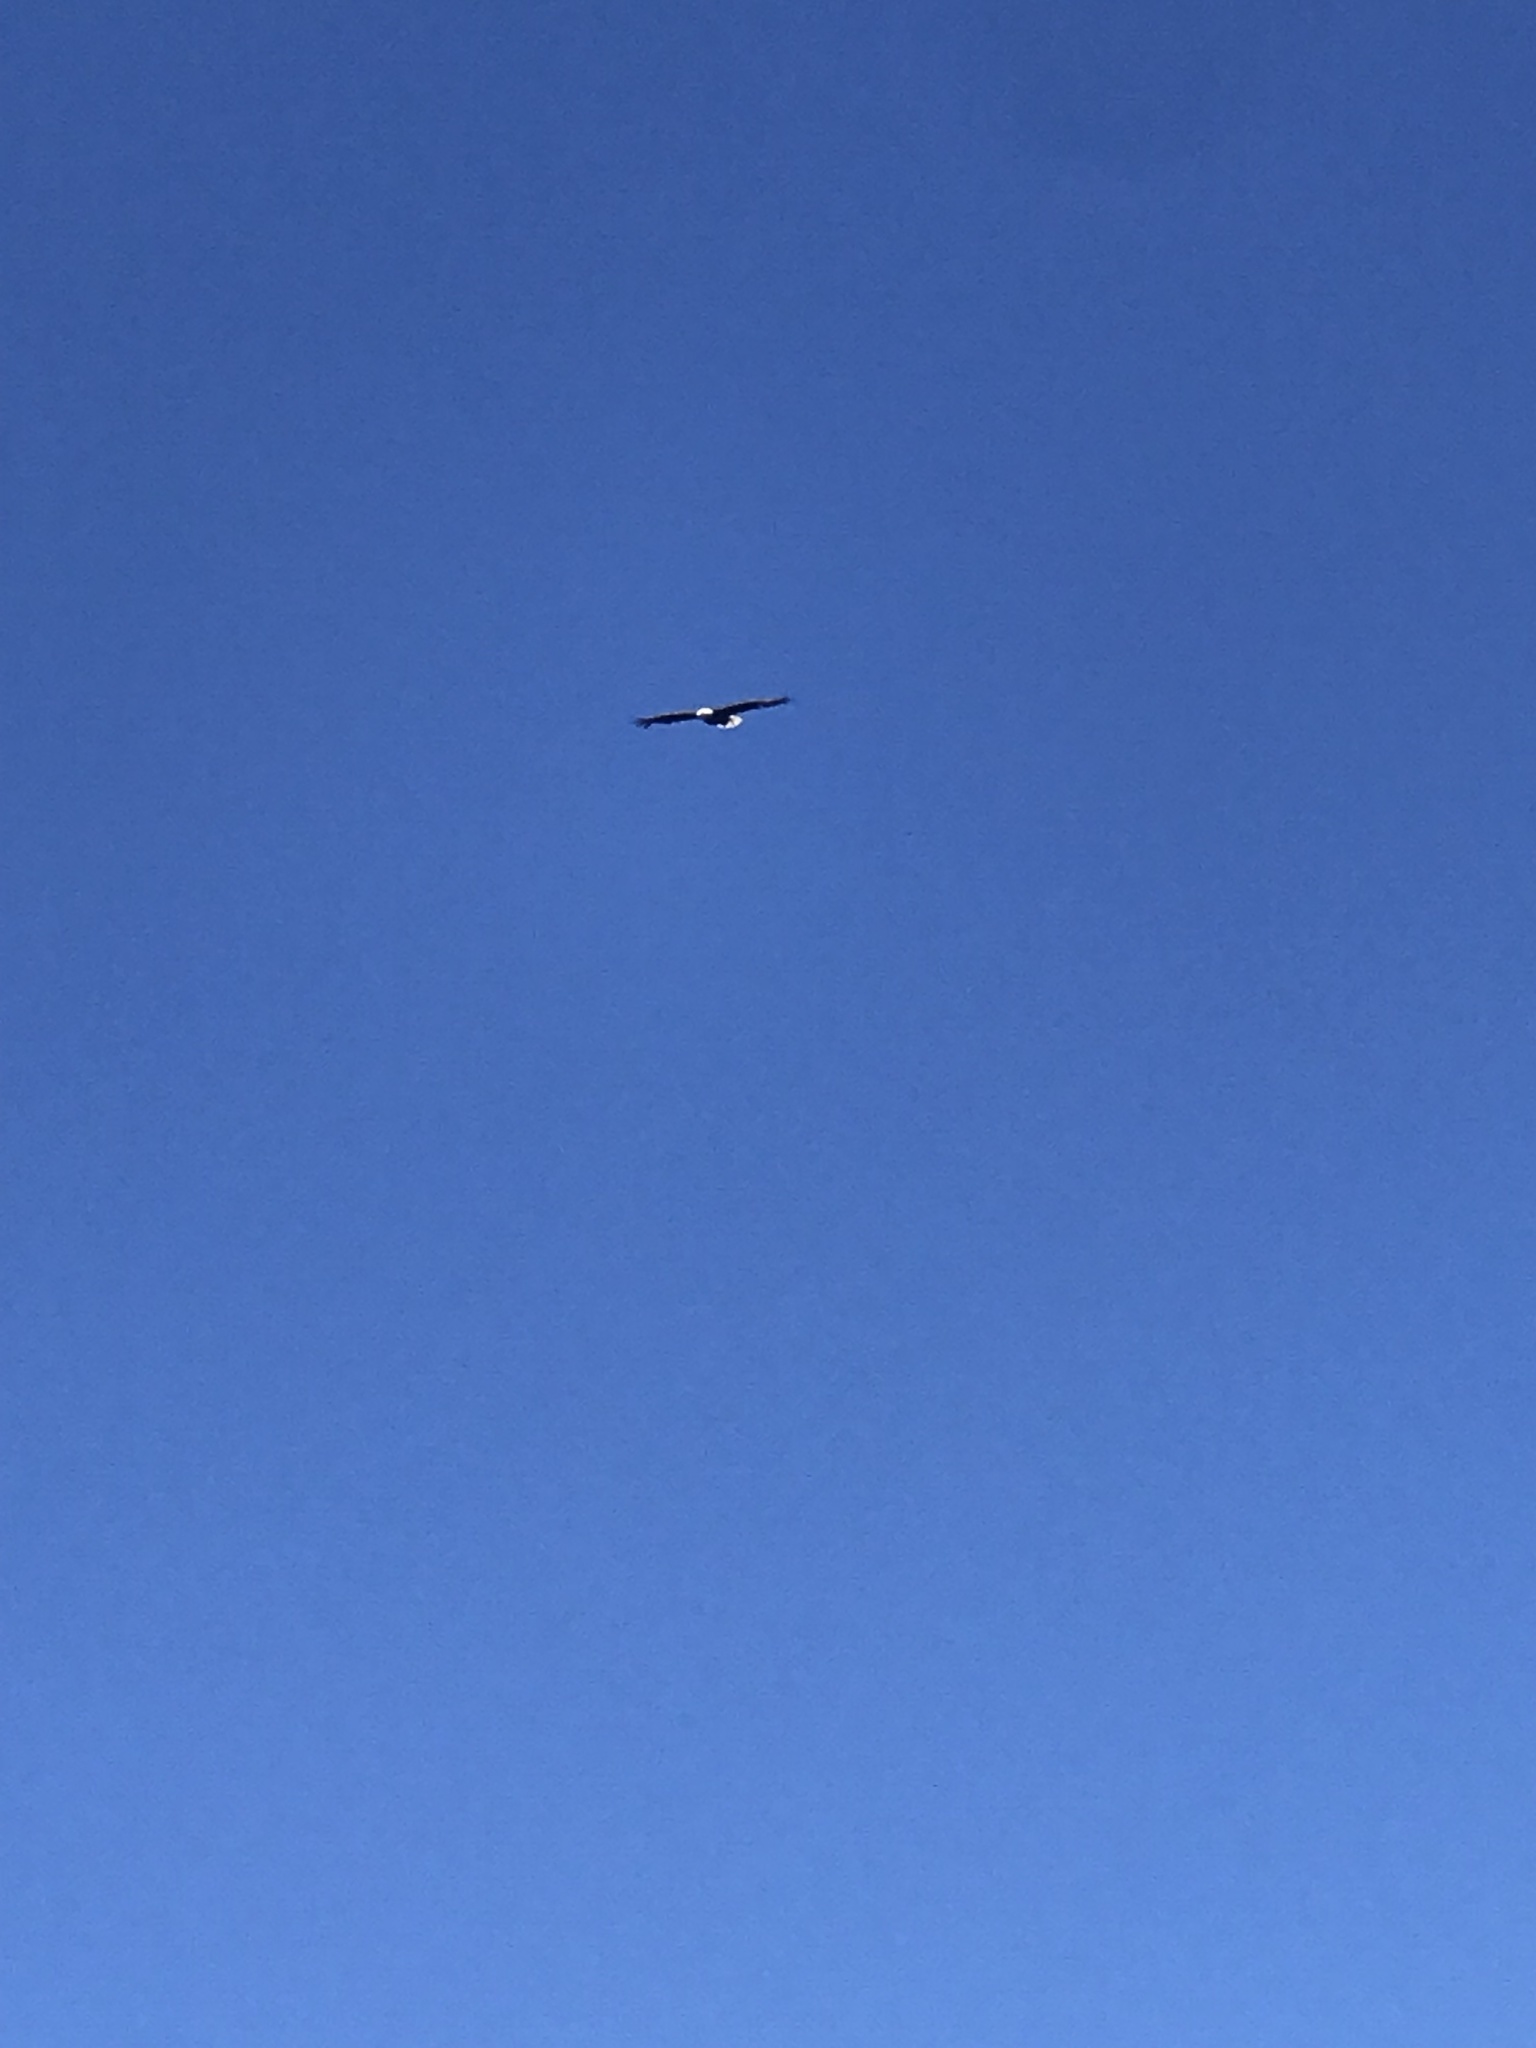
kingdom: Animalia
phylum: Chordata
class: Aves
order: Accipitriformes
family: Accipitridae
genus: Haliaeetus
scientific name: Haliaeetus leucocephalus
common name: Bald eagle
